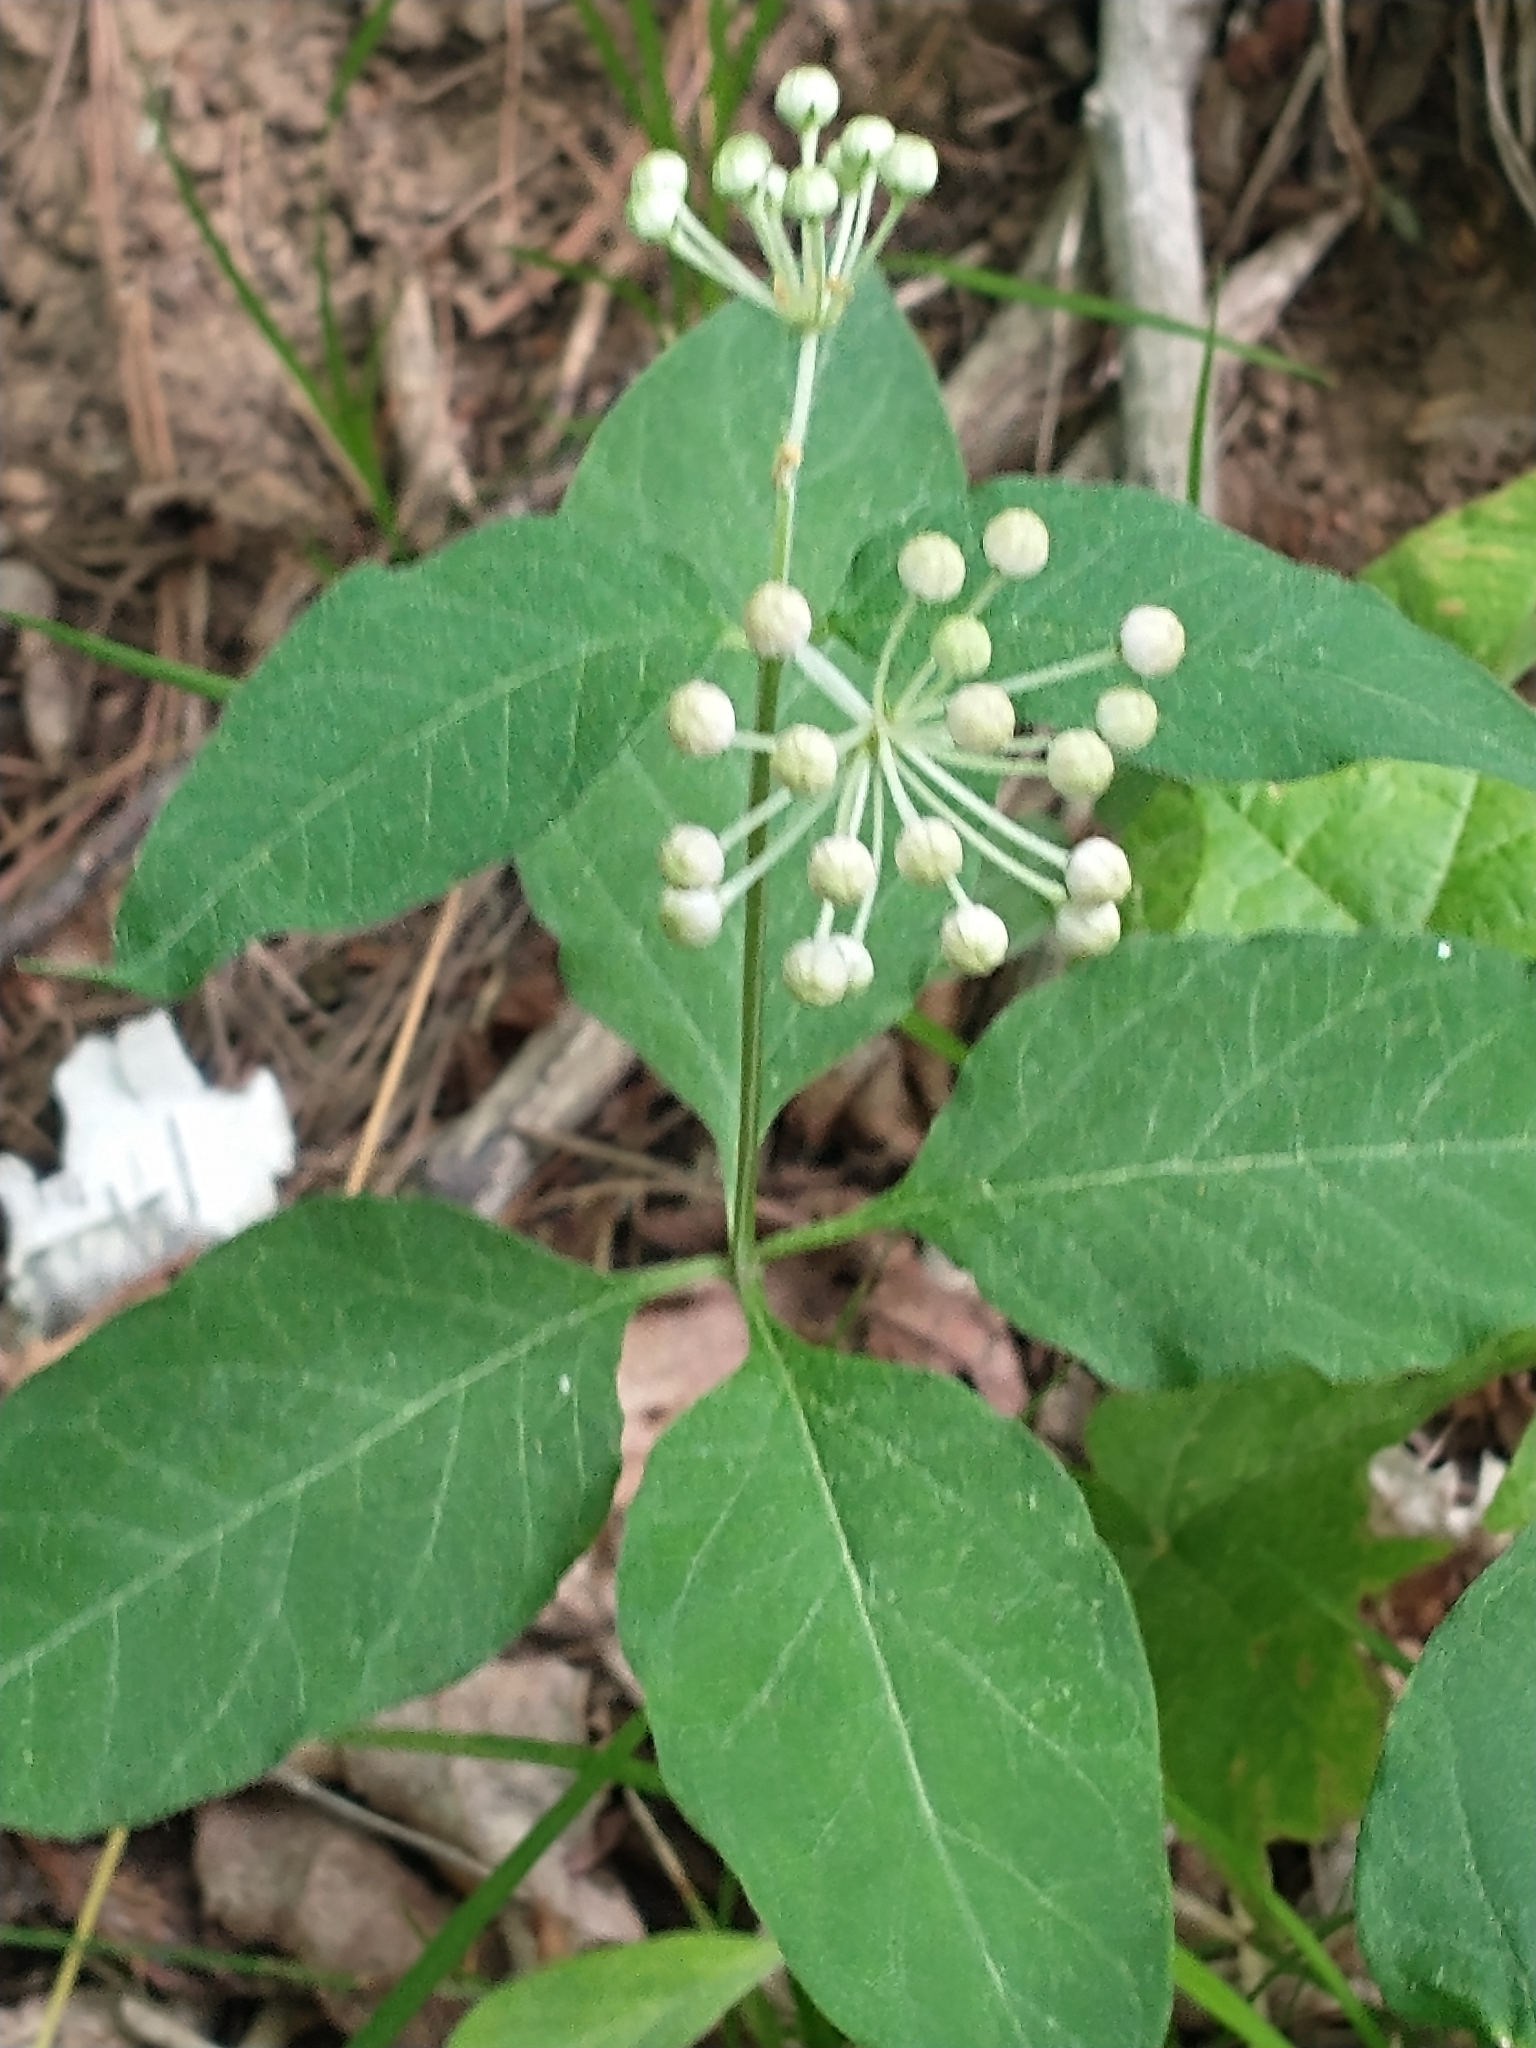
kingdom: Plantae
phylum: Tracheophyta
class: Magnoliopsida
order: Gentianales
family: Apocynaceae
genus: Asclepias
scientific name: Asclepias quadrifolia
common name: Whorled milkweed
